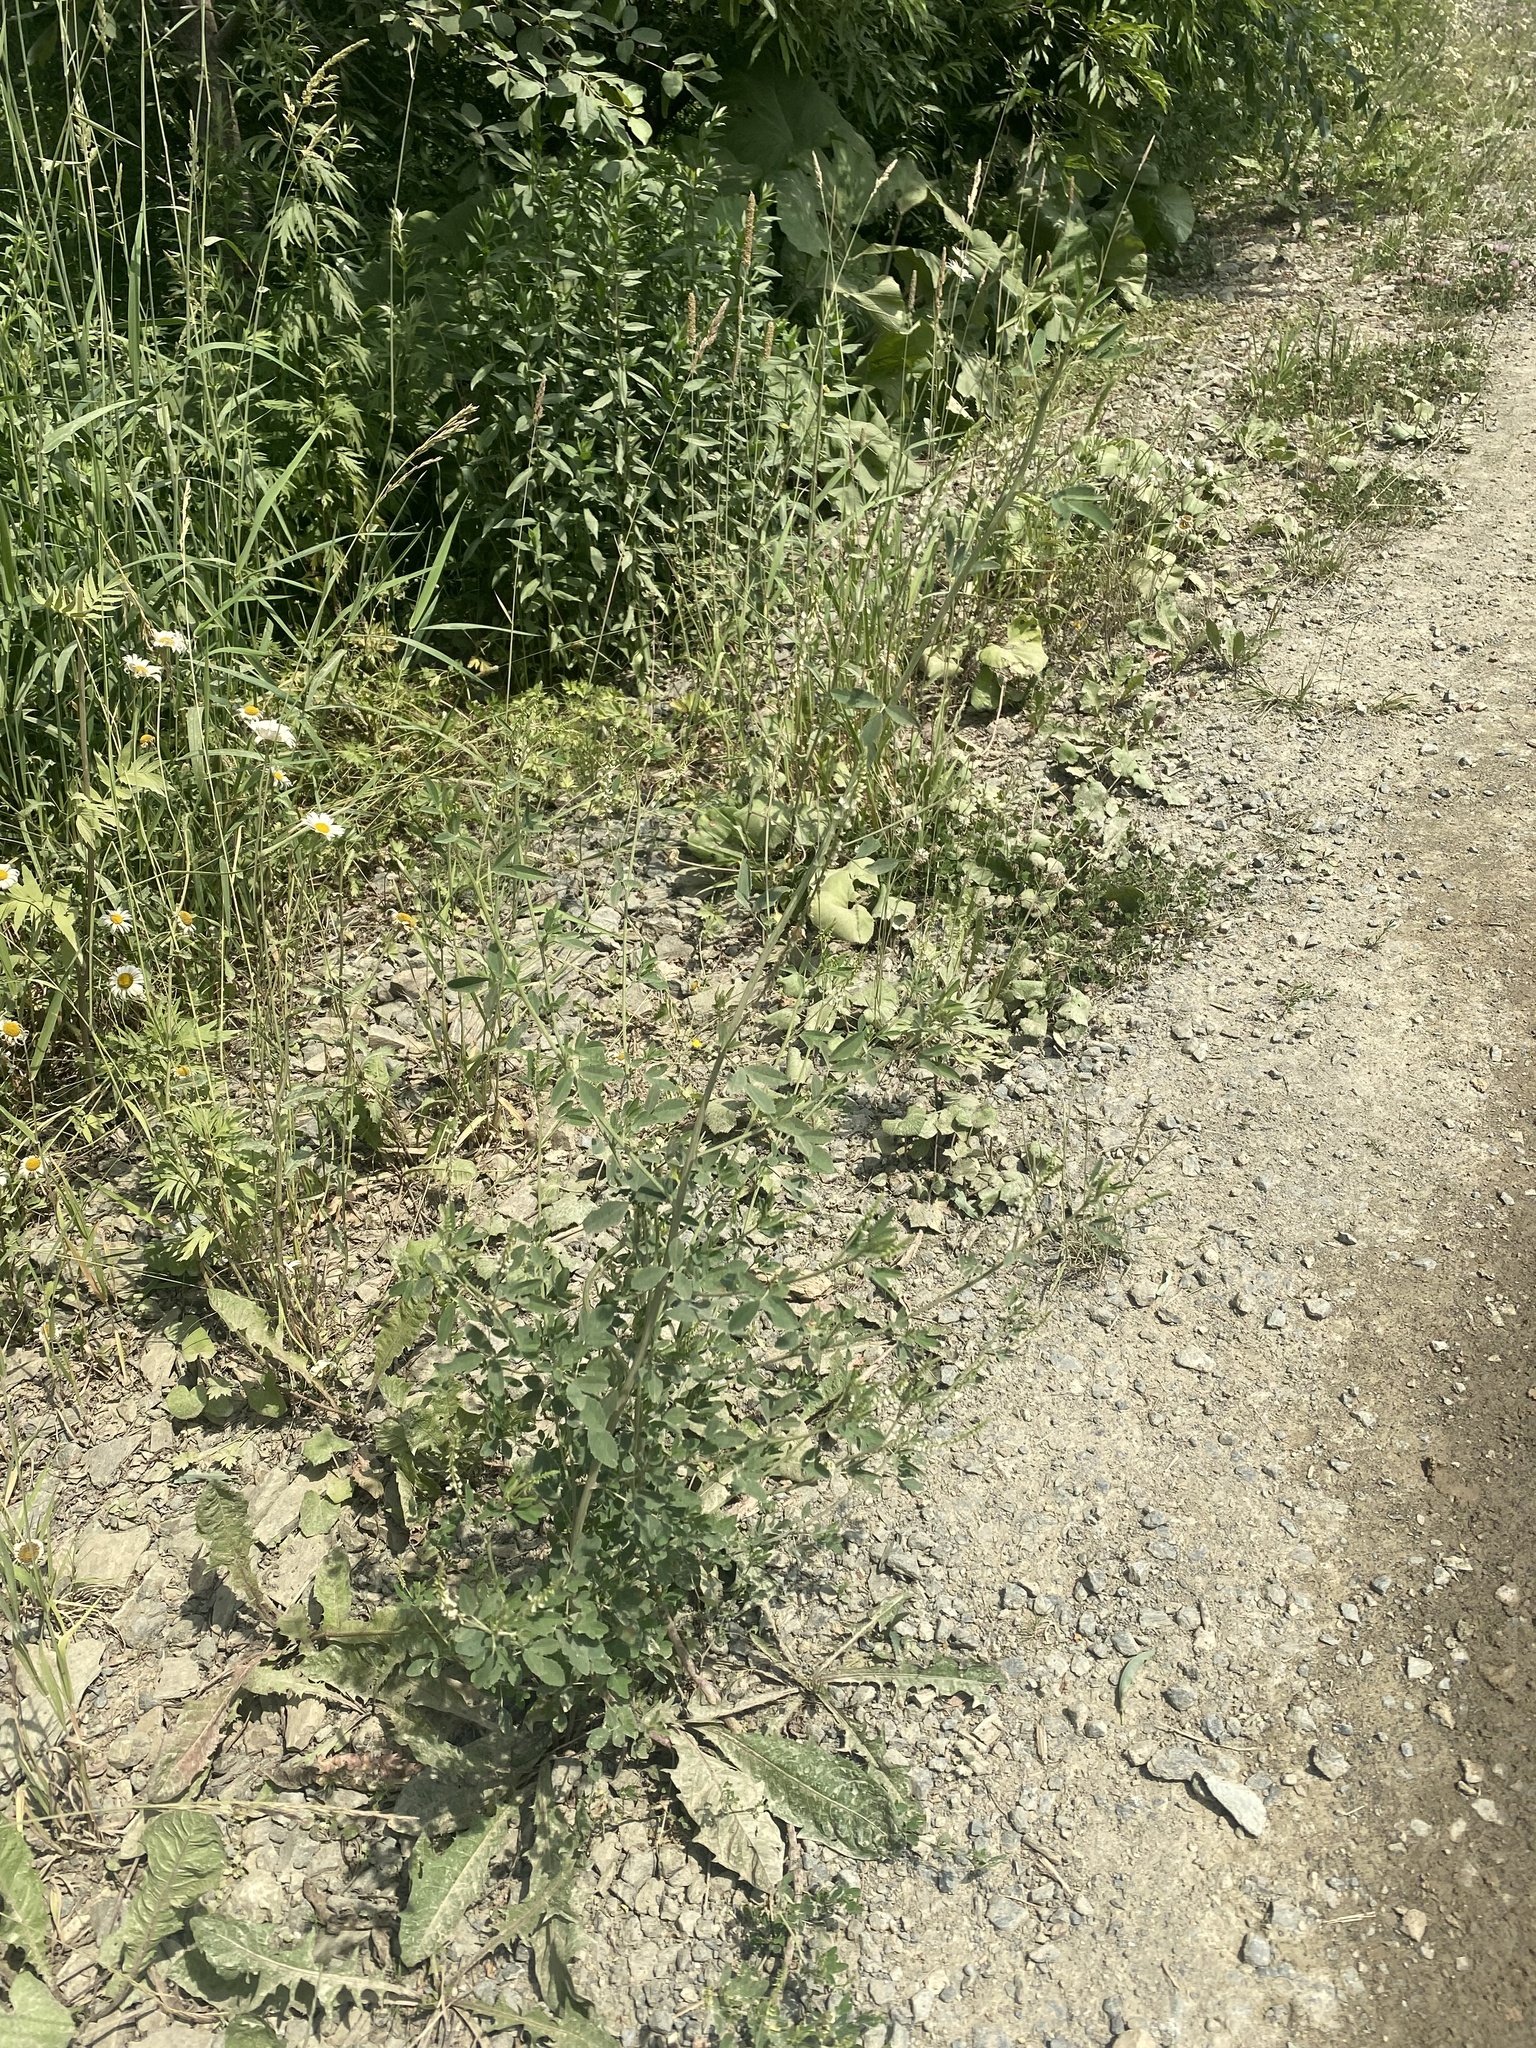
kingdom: Plantae
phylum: Tracheophyta
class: Magnoliopsida
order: Fabales
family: Fabaceae
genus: Melilotus
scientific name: Melilotus albus
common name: White melilot
